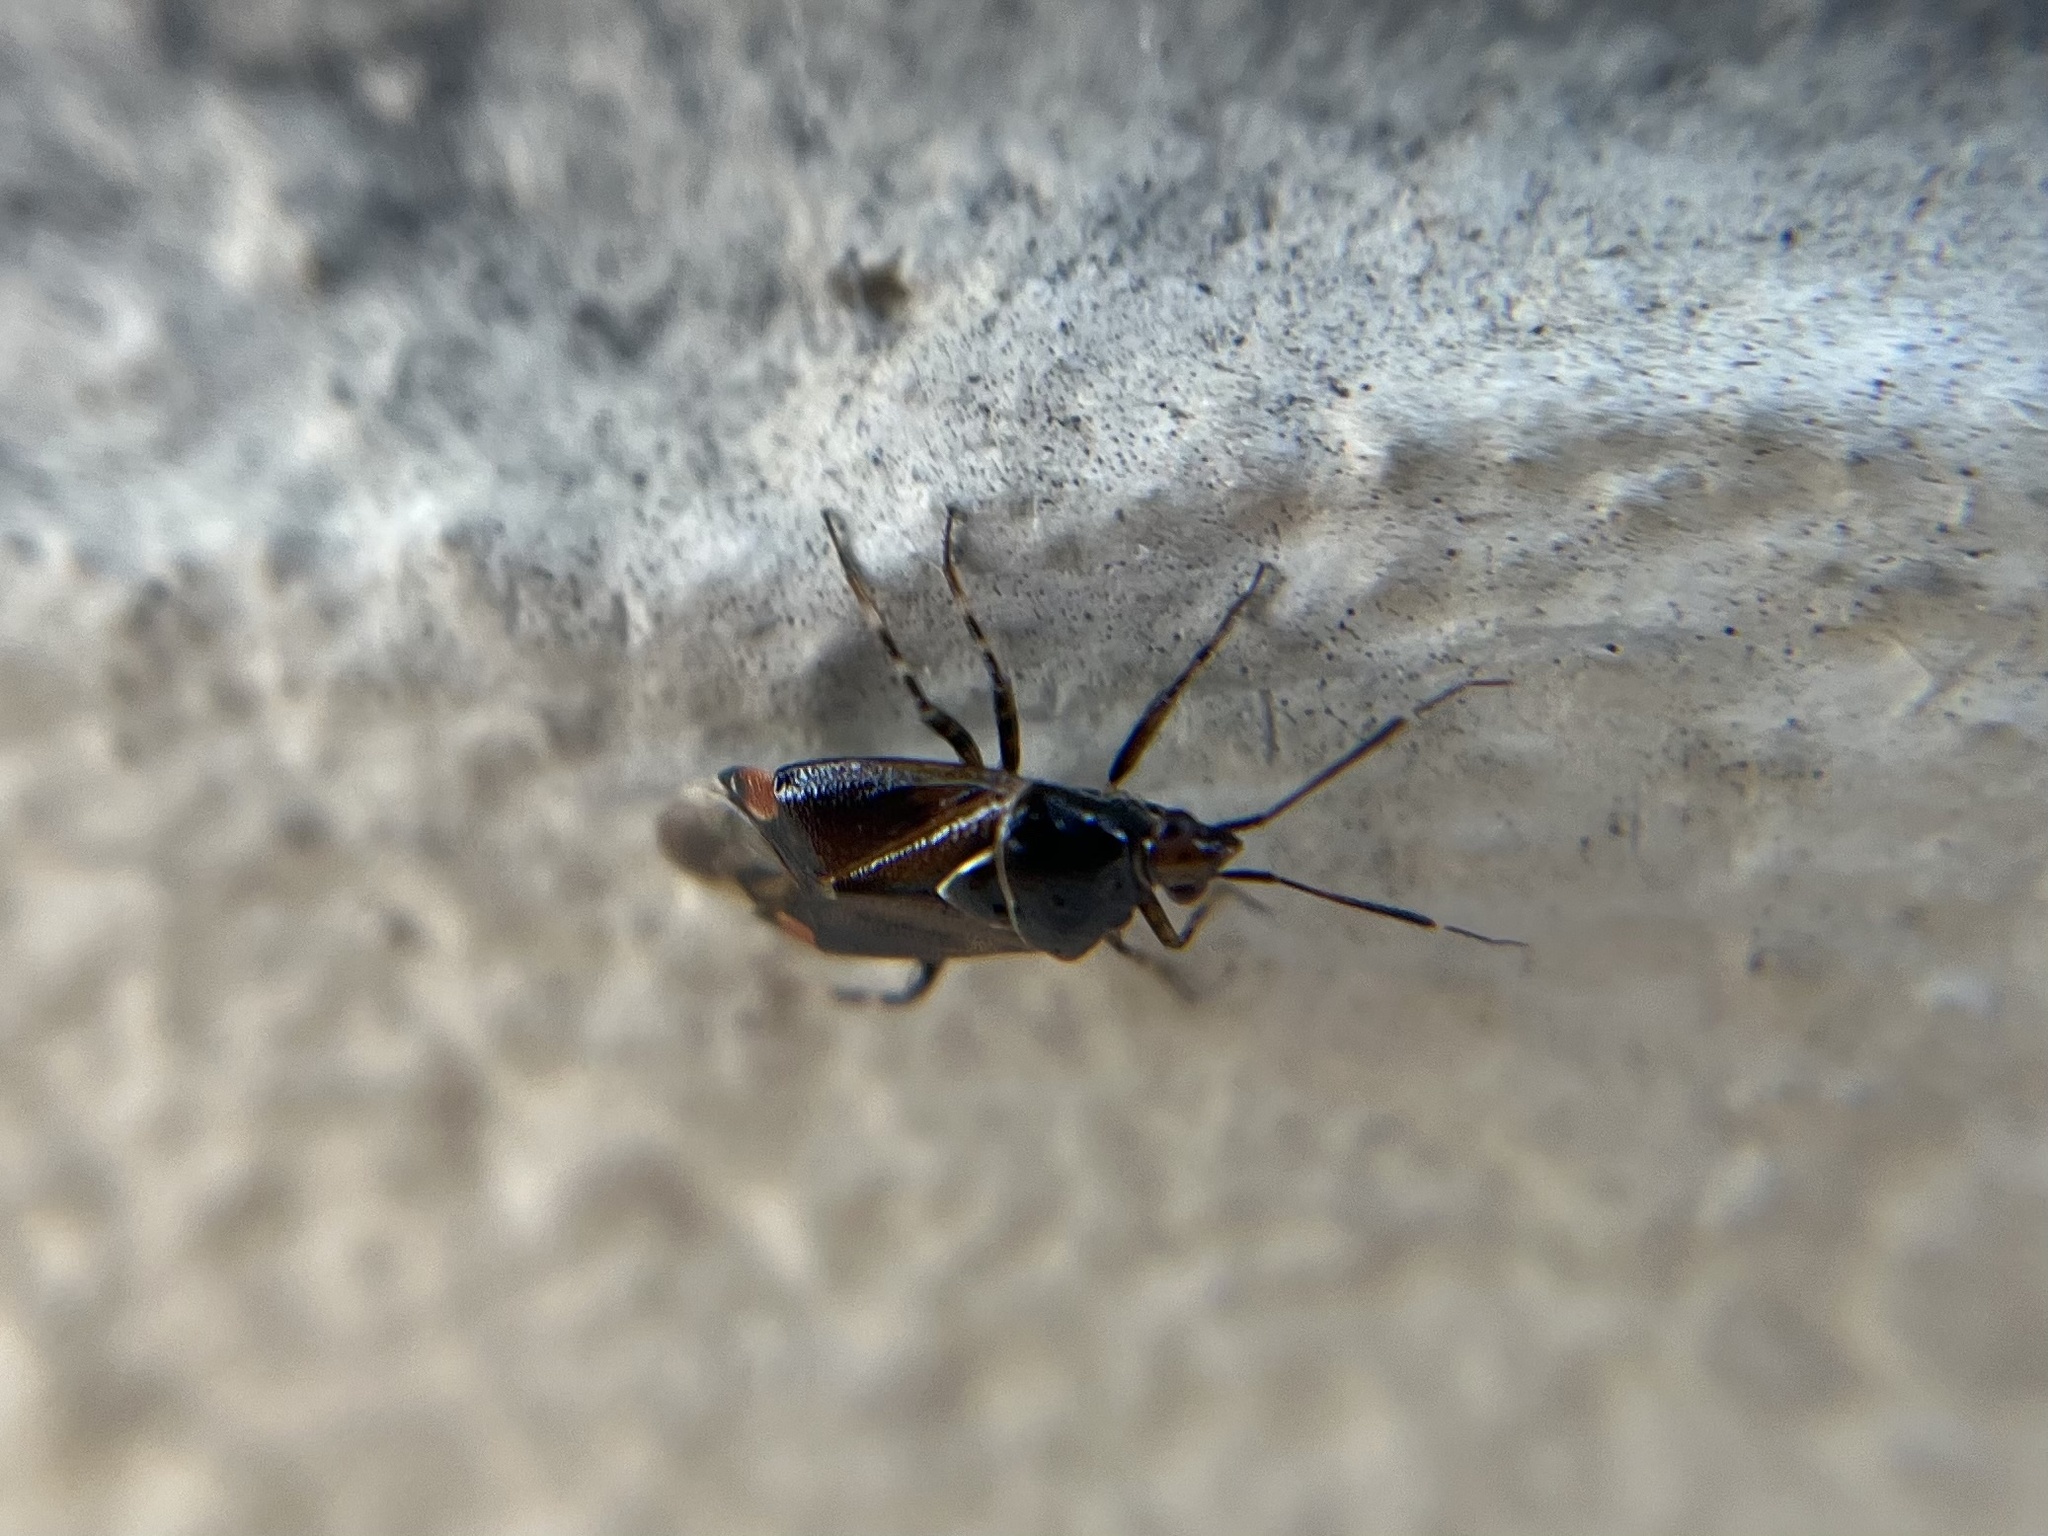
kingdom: Animalia
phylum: Arthropoda
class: Insecta
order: Hemiptera
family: Miridae
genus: Deraeocoris
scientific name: Deraeocoris flavilinea
